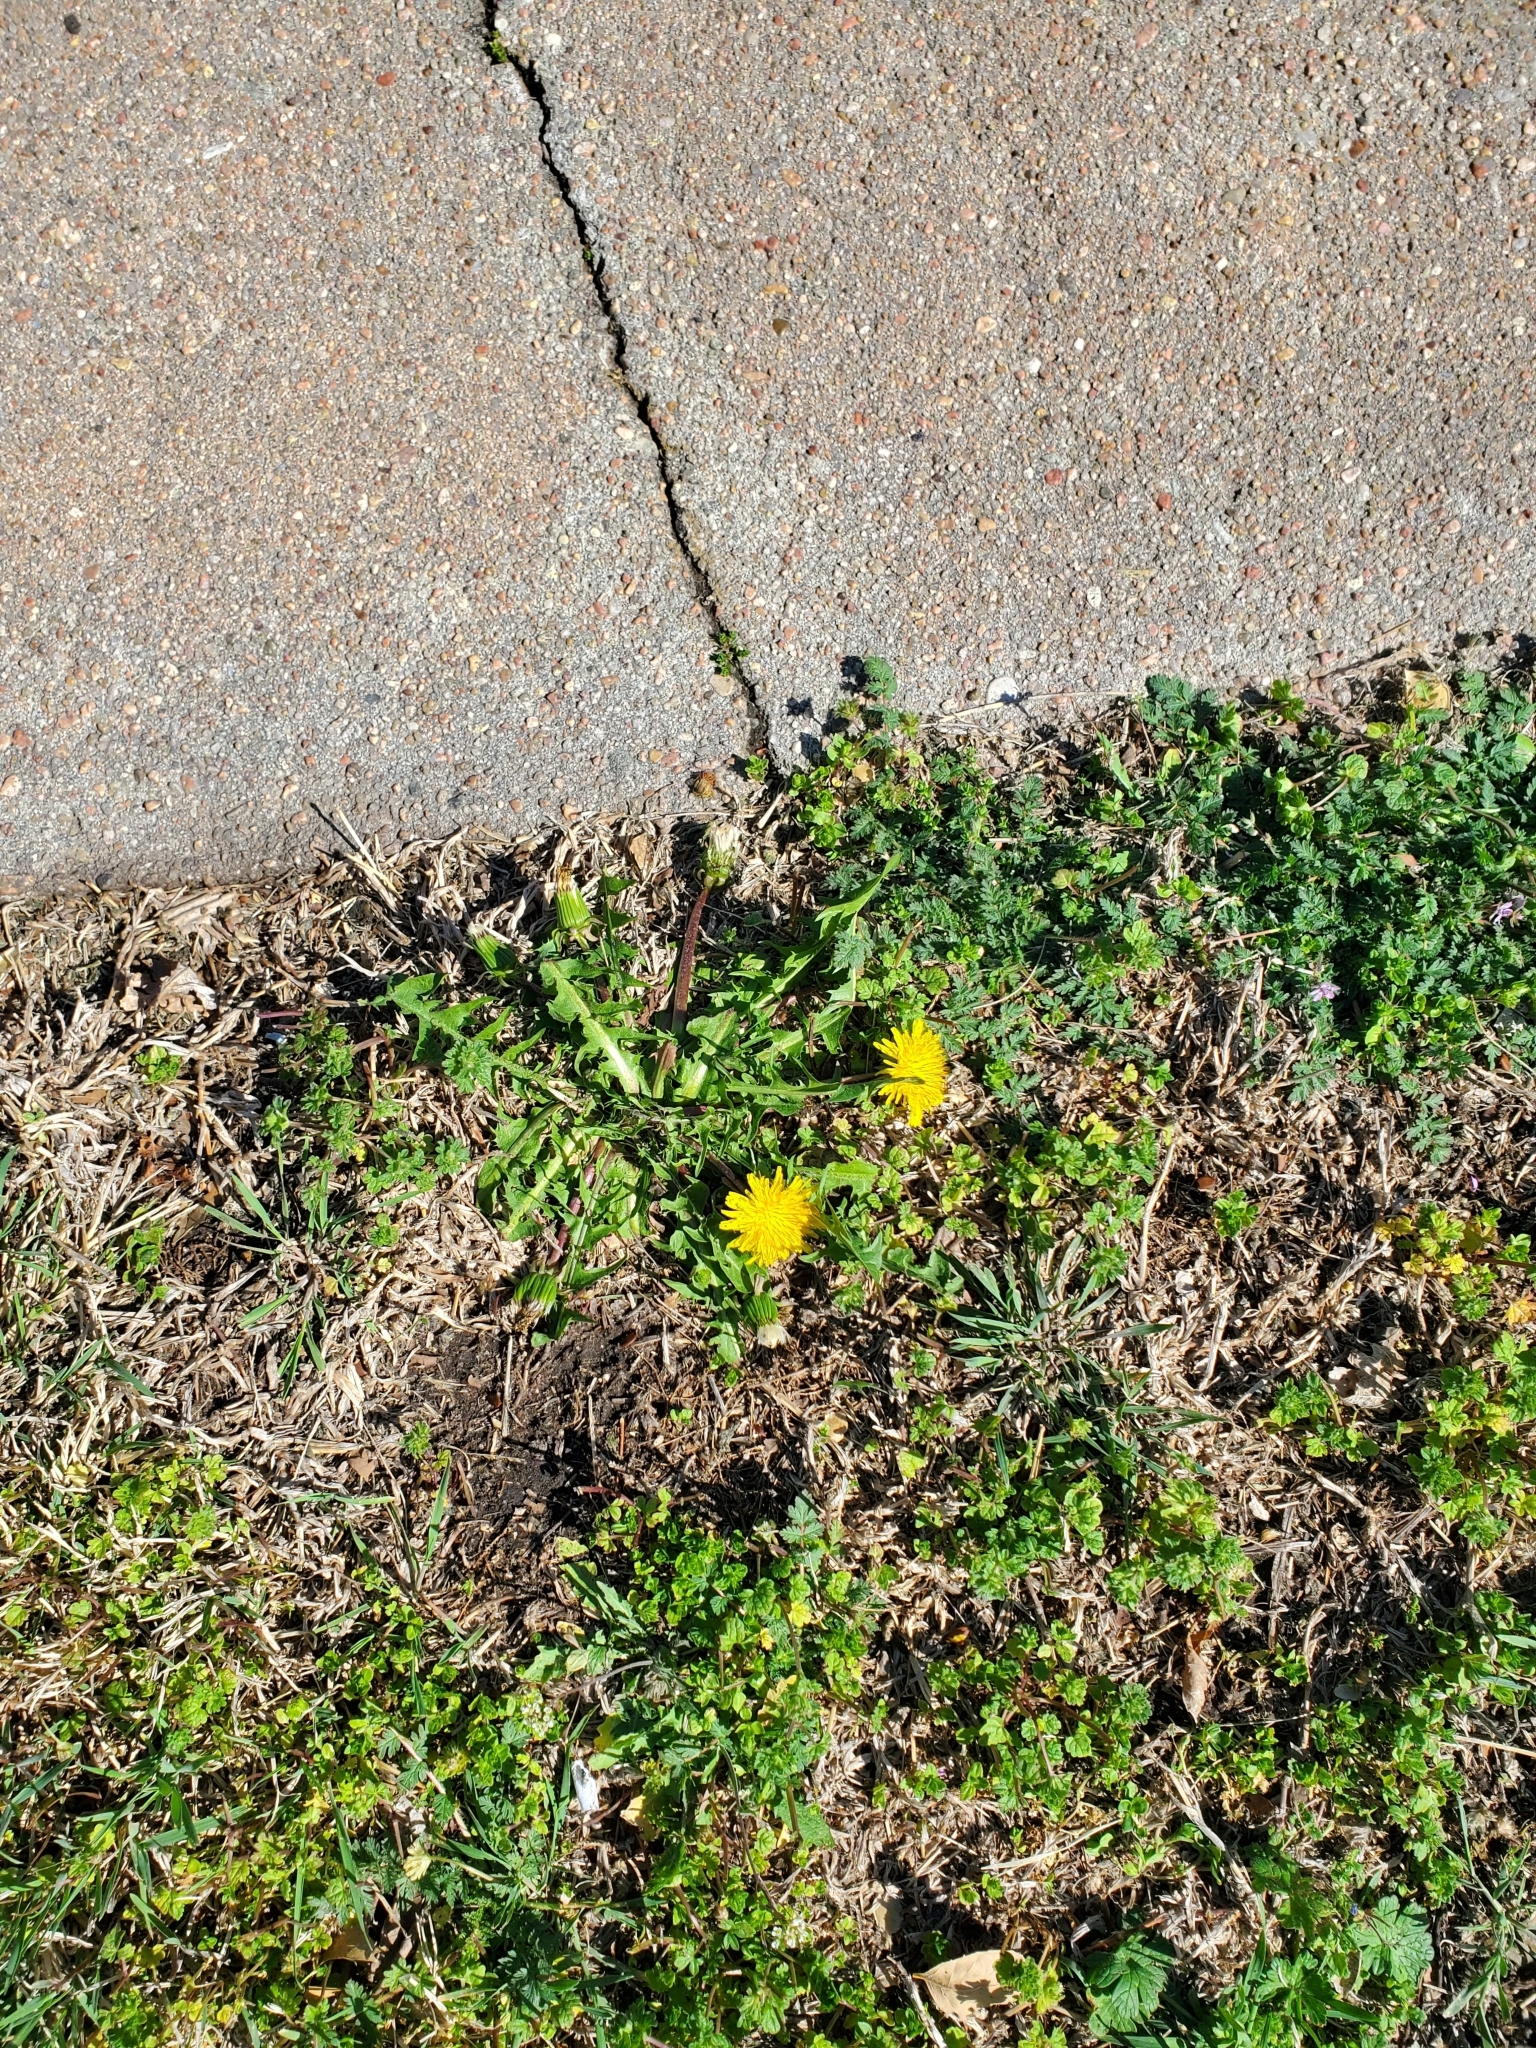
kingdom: Plantae
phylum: Tracheophyta
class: Magnoliopsida
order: Asterales
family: Asteraceae
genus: Taraxacum
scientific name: Taraxacum officinale
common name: Common dandelion
